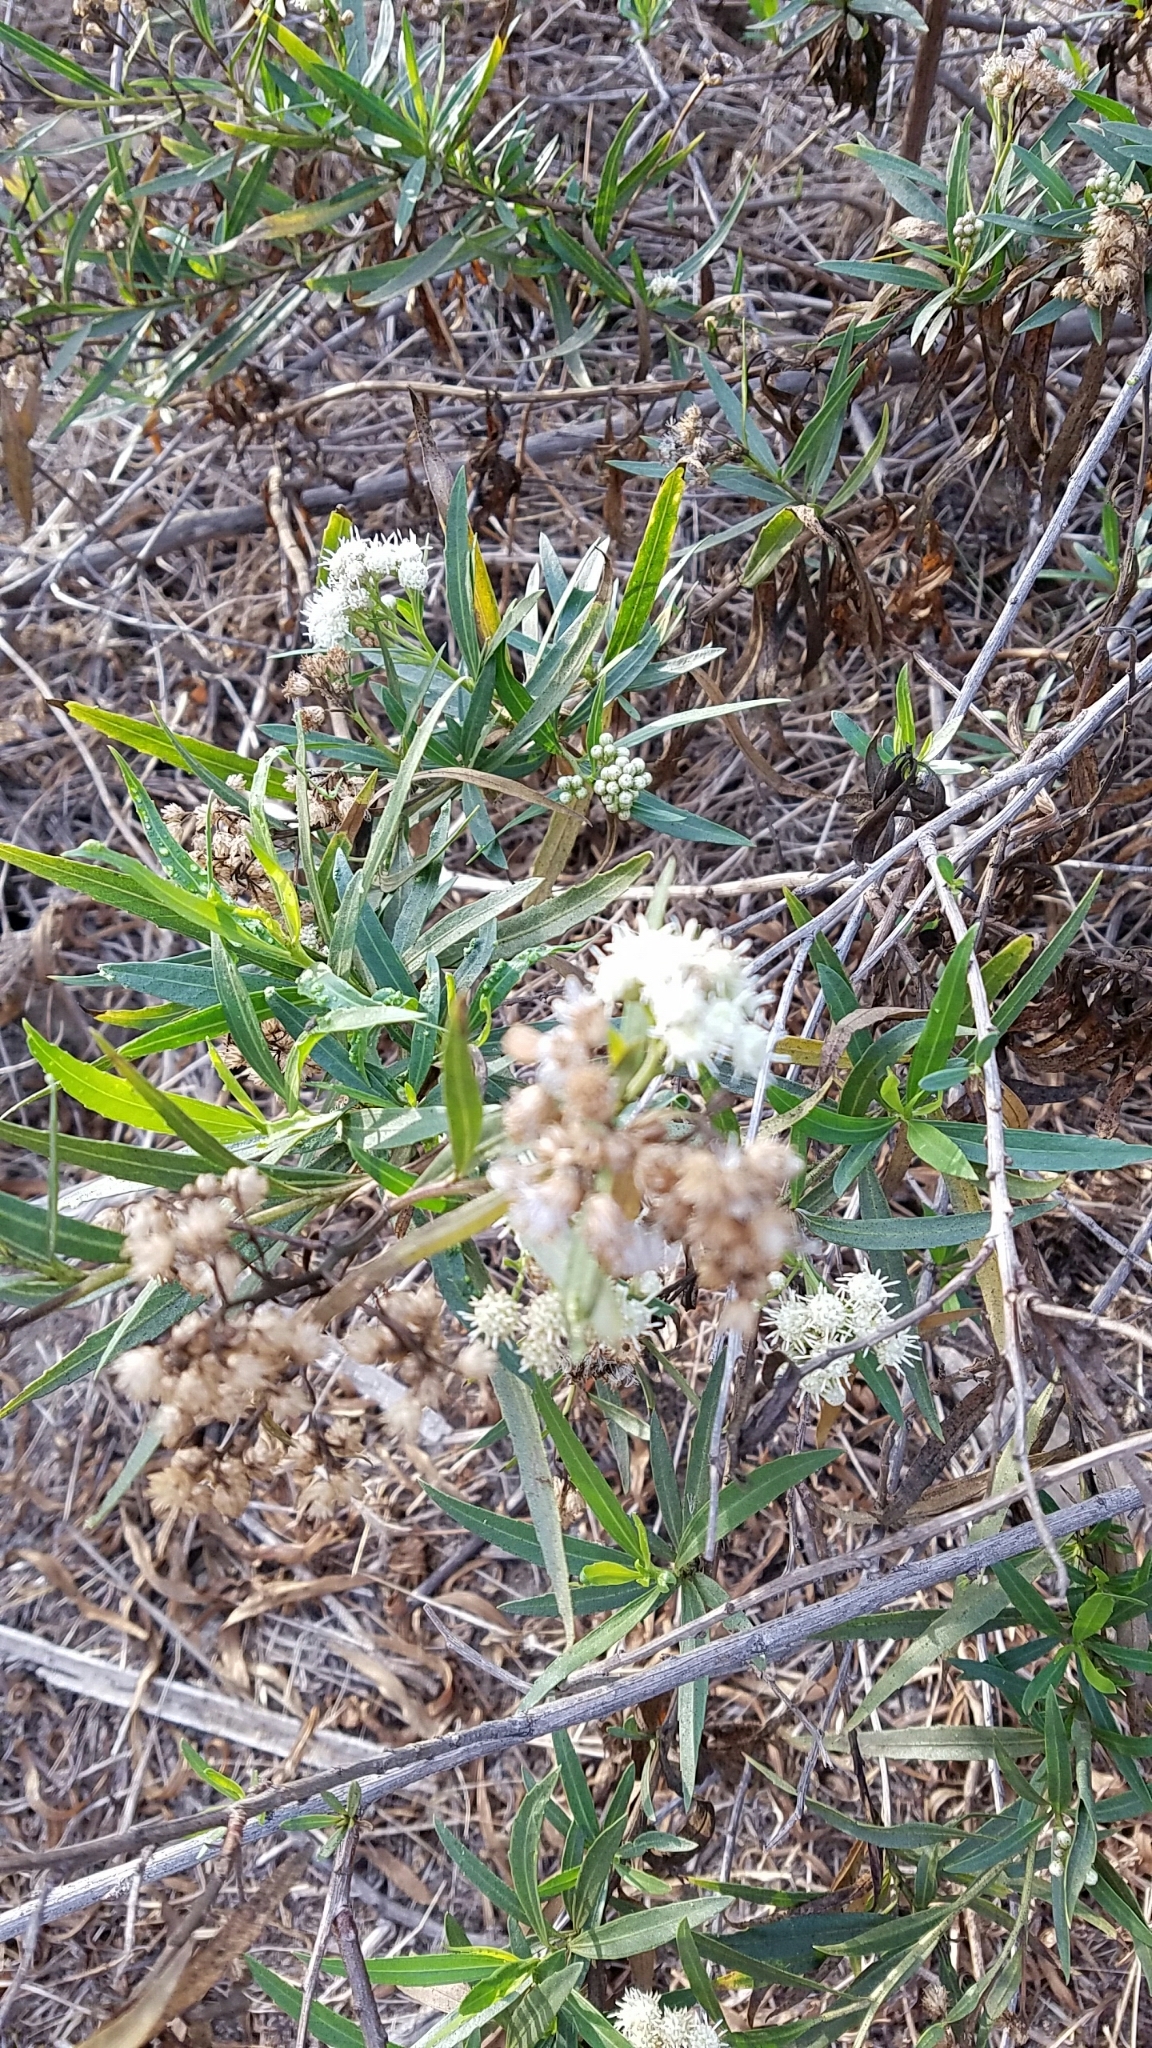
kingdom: Plantae
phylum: Tracheophyta
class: Magnoliopsida
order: Asterales
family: Asteraceae
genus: Baccharis
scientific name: Baccharis salicifolia
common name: Sticky baccharis
